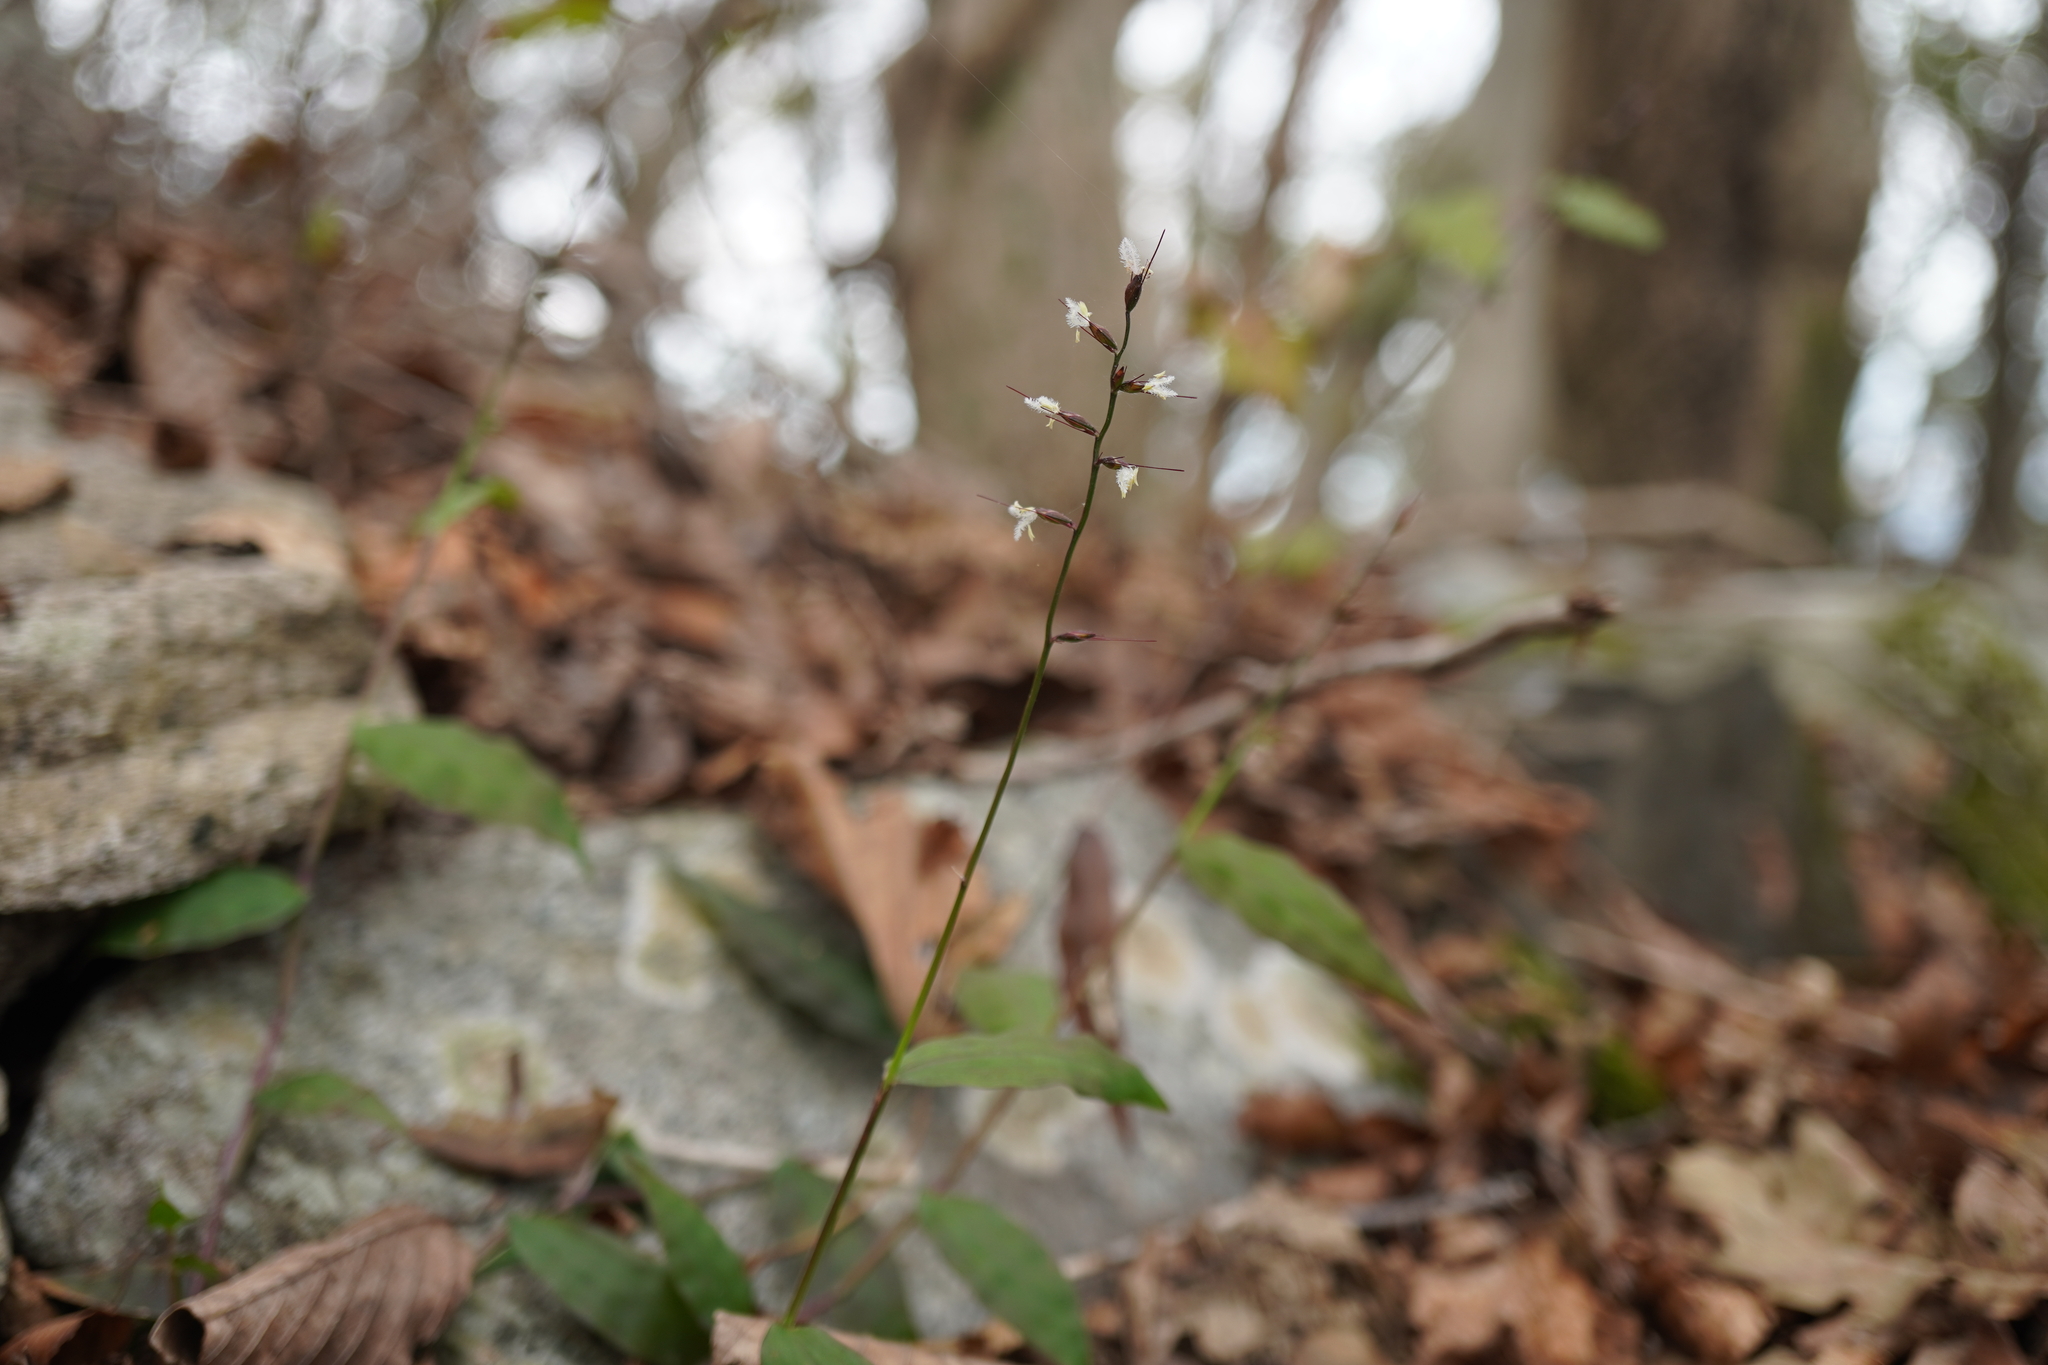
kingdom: Plantae
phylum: Tracheophyta
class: Liliopsida
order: Poales
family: Poaceae
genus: Oplismenus
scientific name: Oplismenus undulatifolius
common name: Wavyleaf basketgrass
